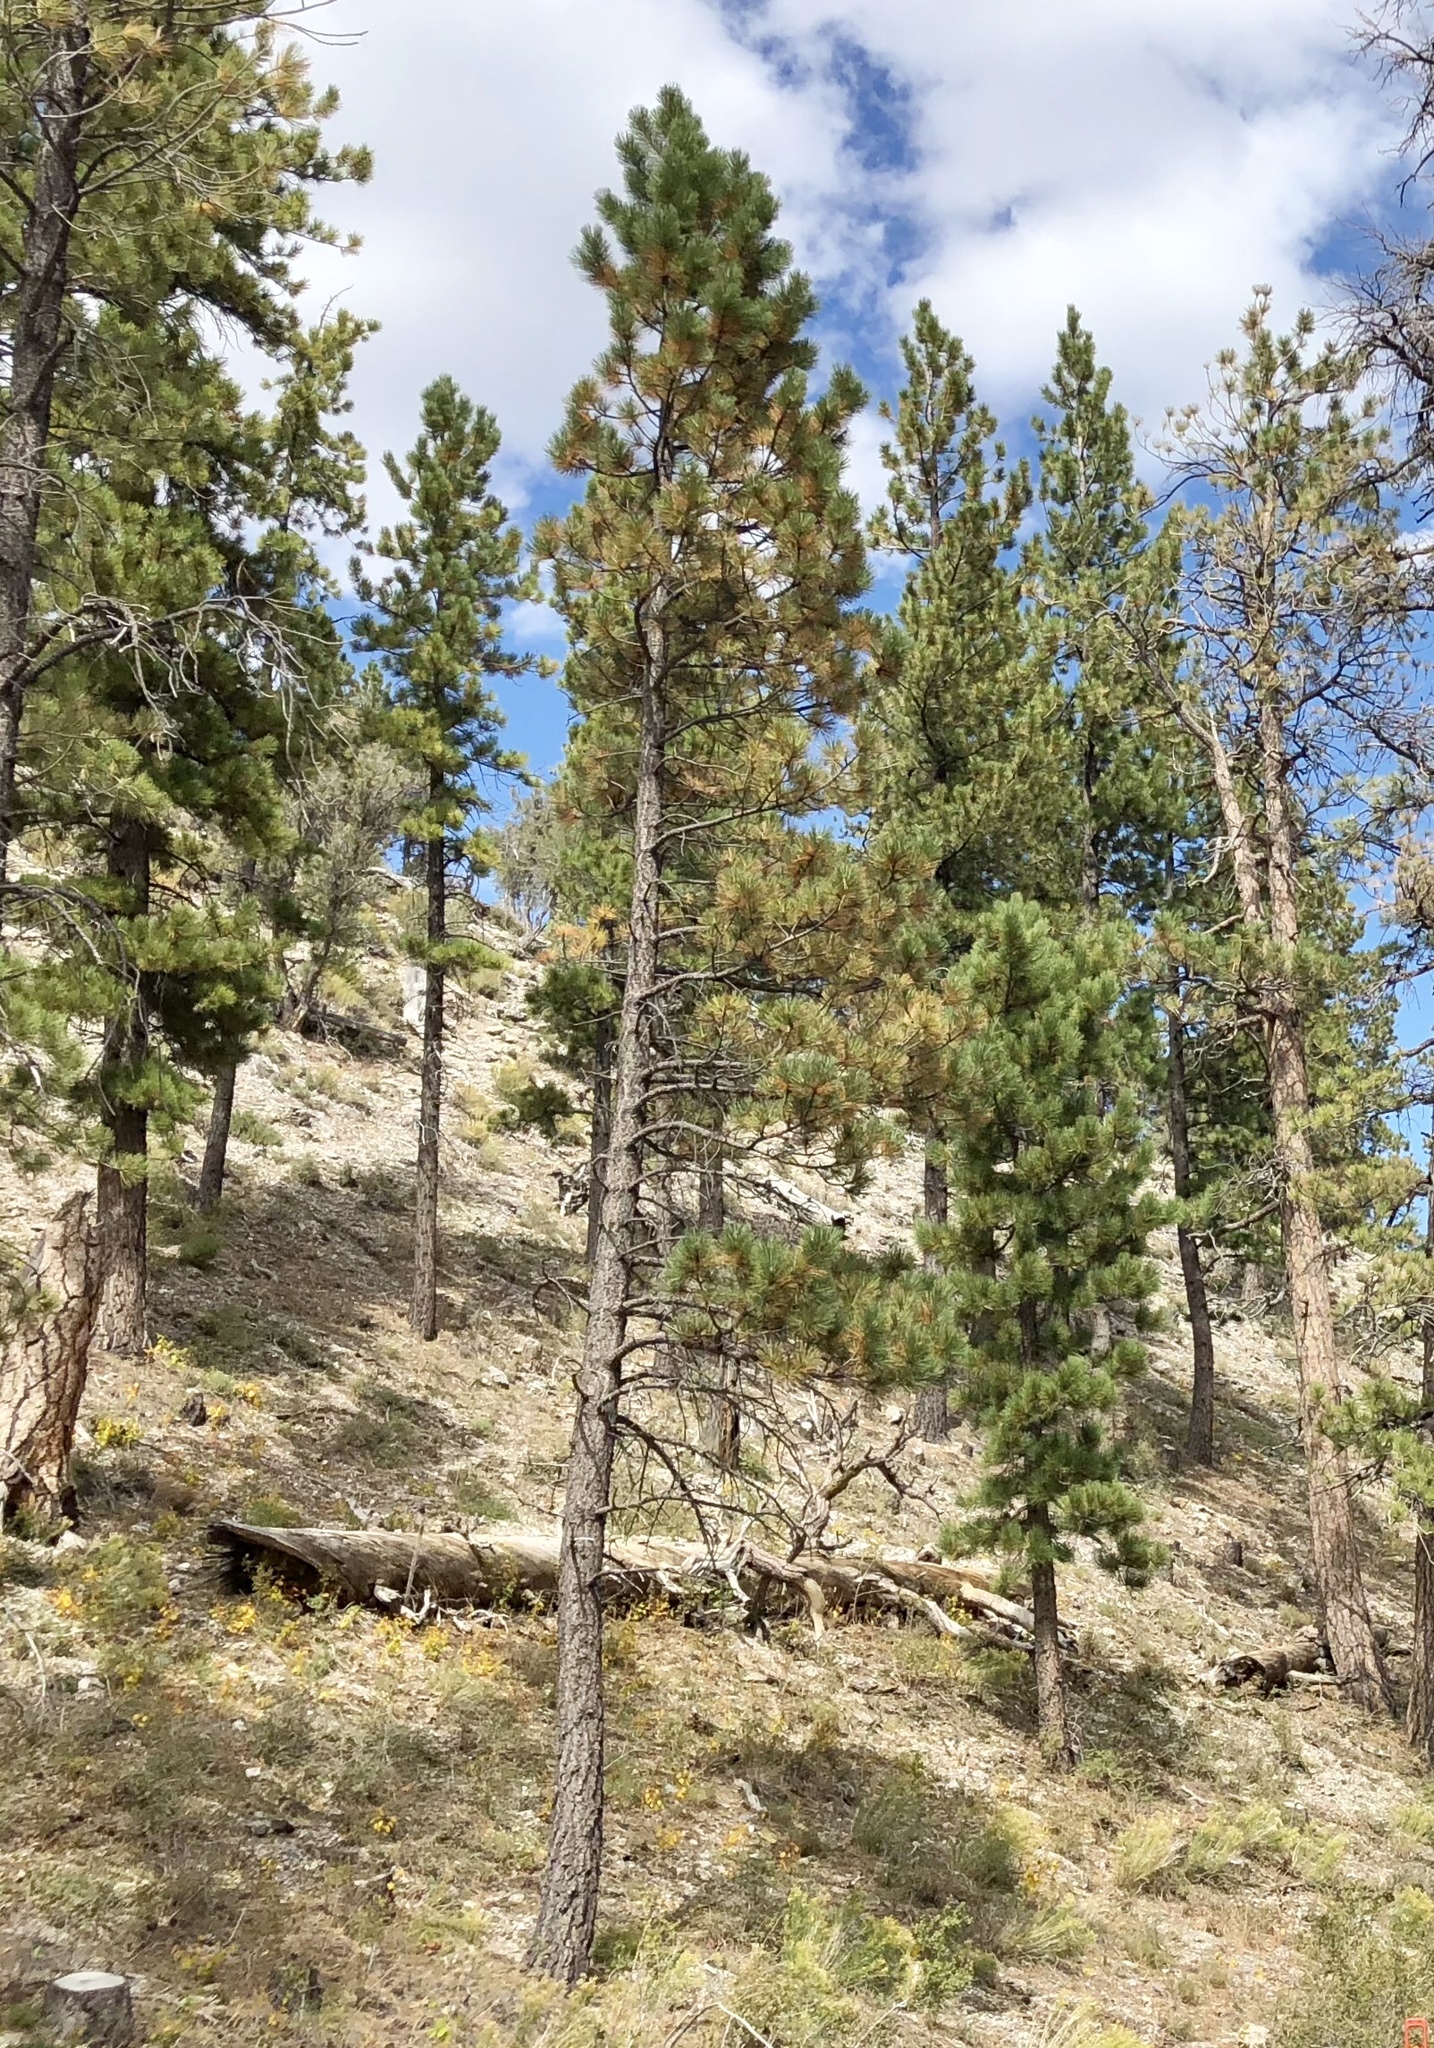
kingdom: Plantae
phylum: Tracheophyta
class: Pinopsida
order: Pinales
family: Pinaceae
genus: Pinus
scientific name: Pinus ponderosa
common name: Western yellow-pine
